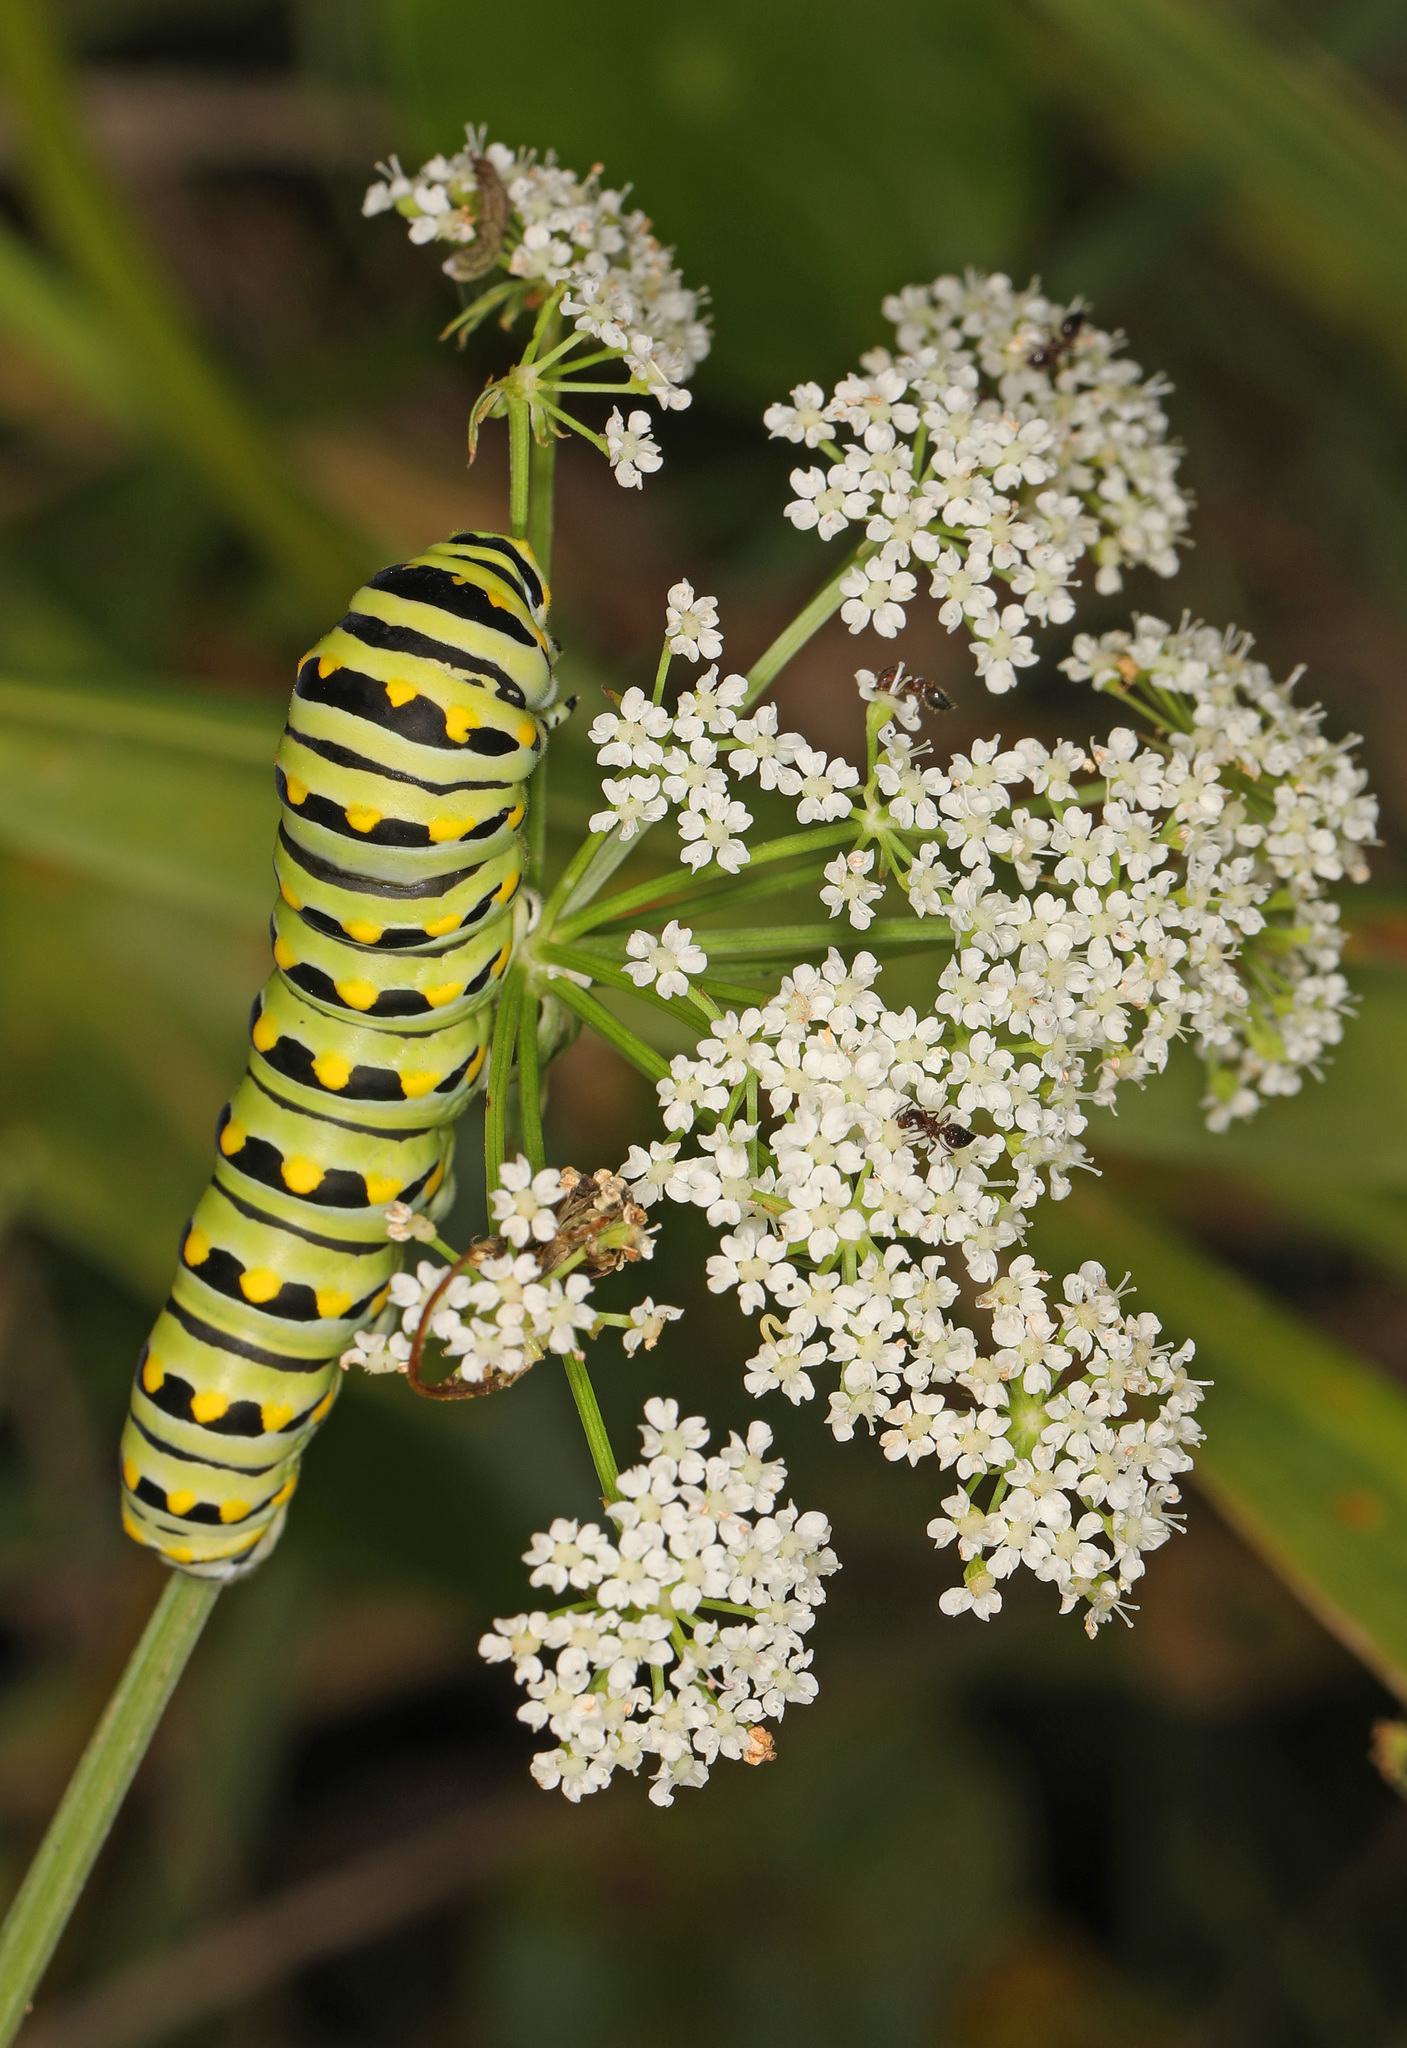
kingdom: Animalia
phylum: Arthropoda
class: Insecta
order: Lepidoptera
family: Papilionidae
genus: Papilio
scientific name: Papilio polyxenes
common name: Black swallowtail
